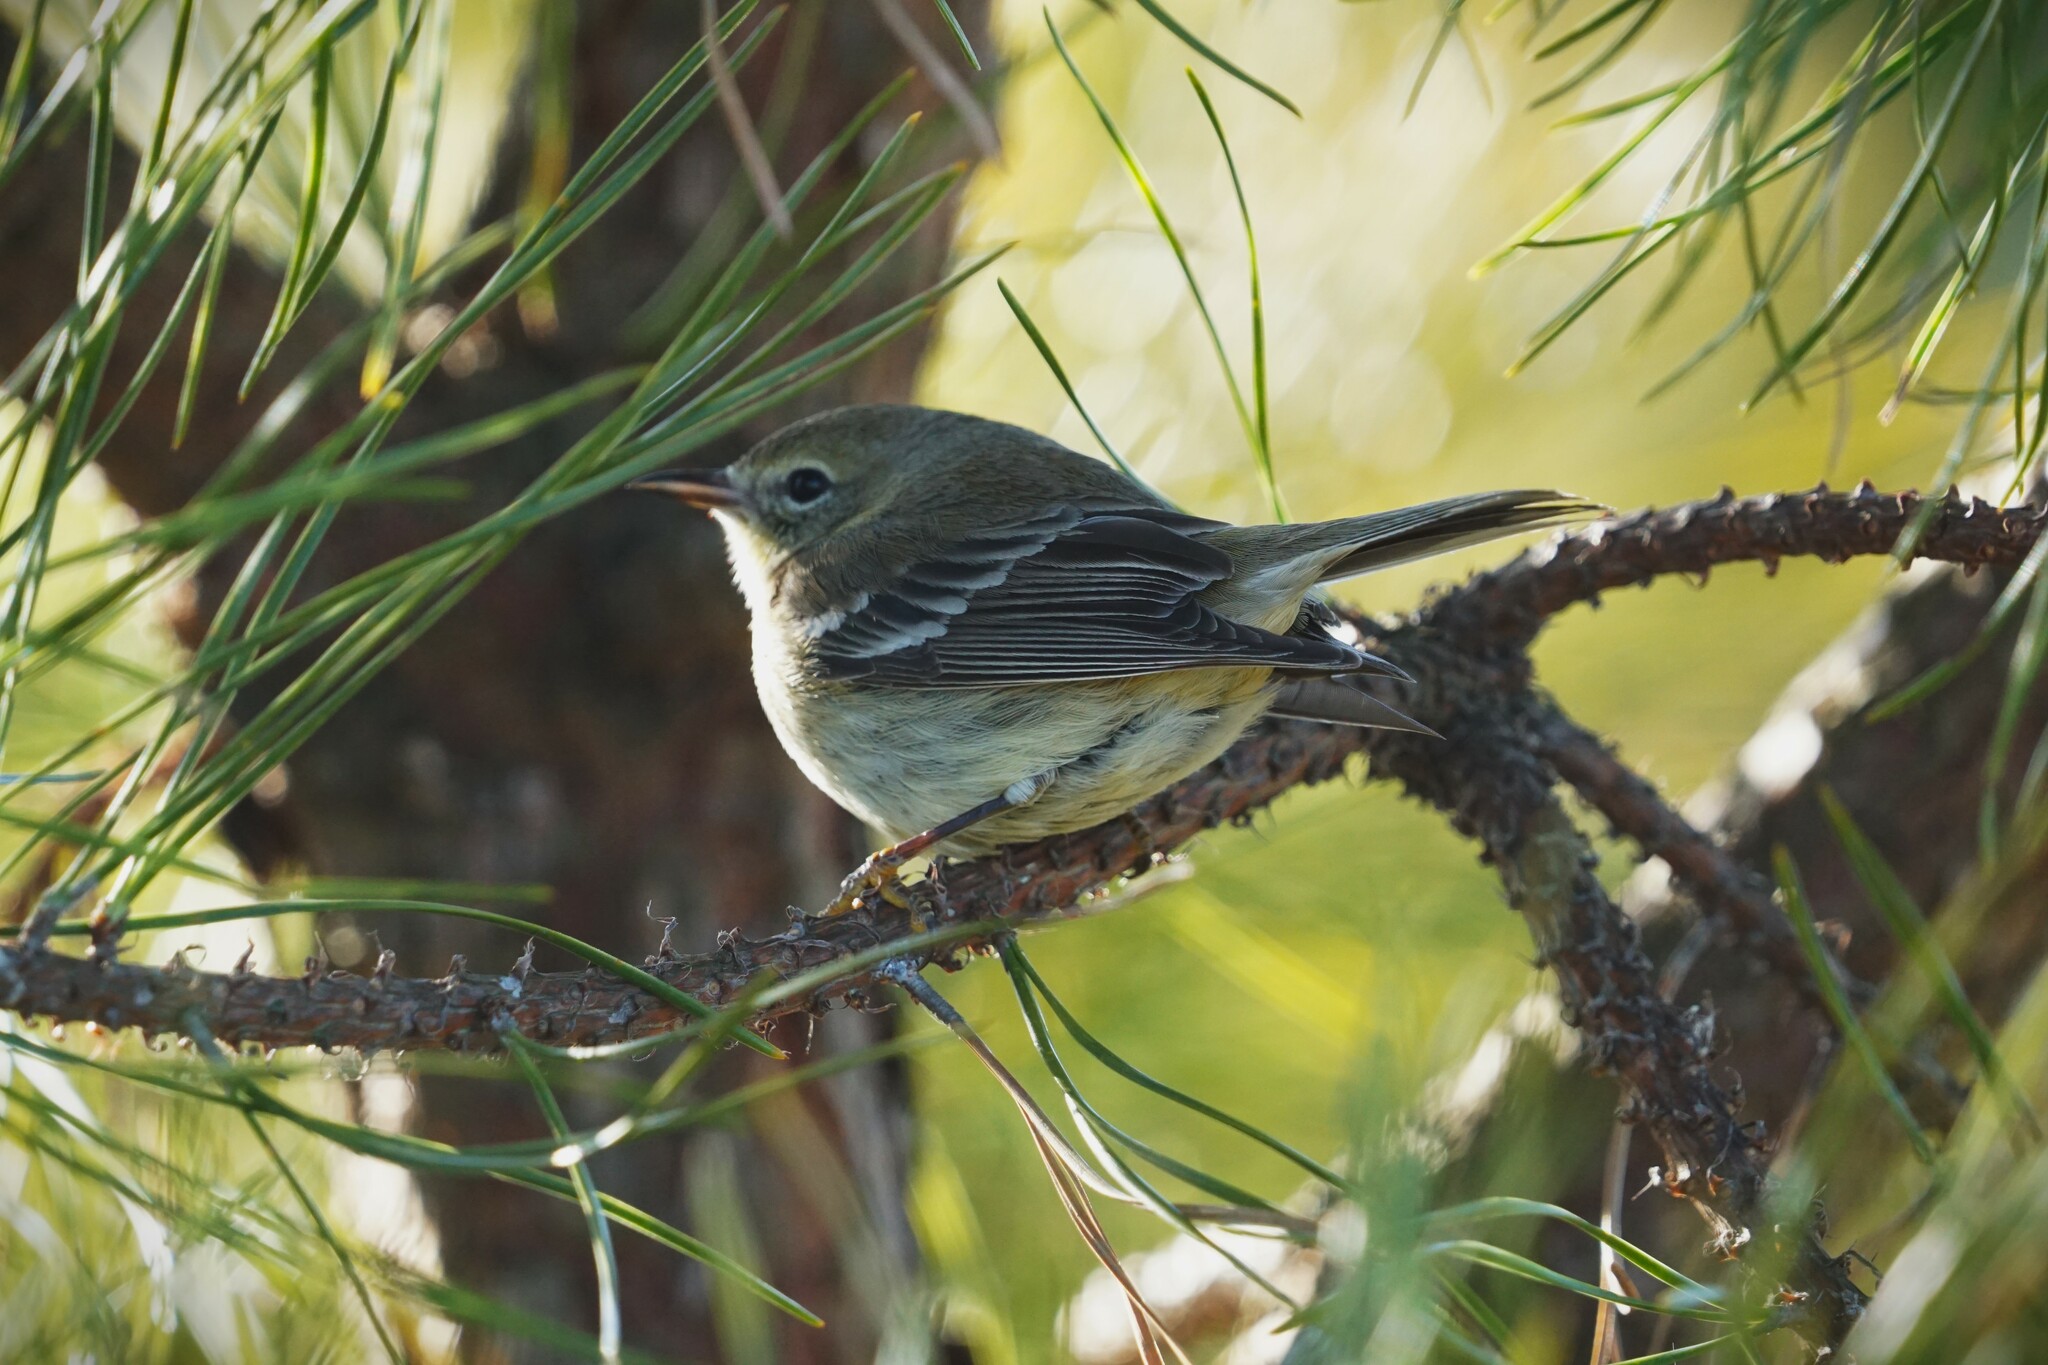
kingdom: Animalia
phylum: Chordata
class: Aves
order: Passeriformes
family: Parulidae
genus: Setophaga
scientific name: Setophaga pinus
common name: Pine warbler
